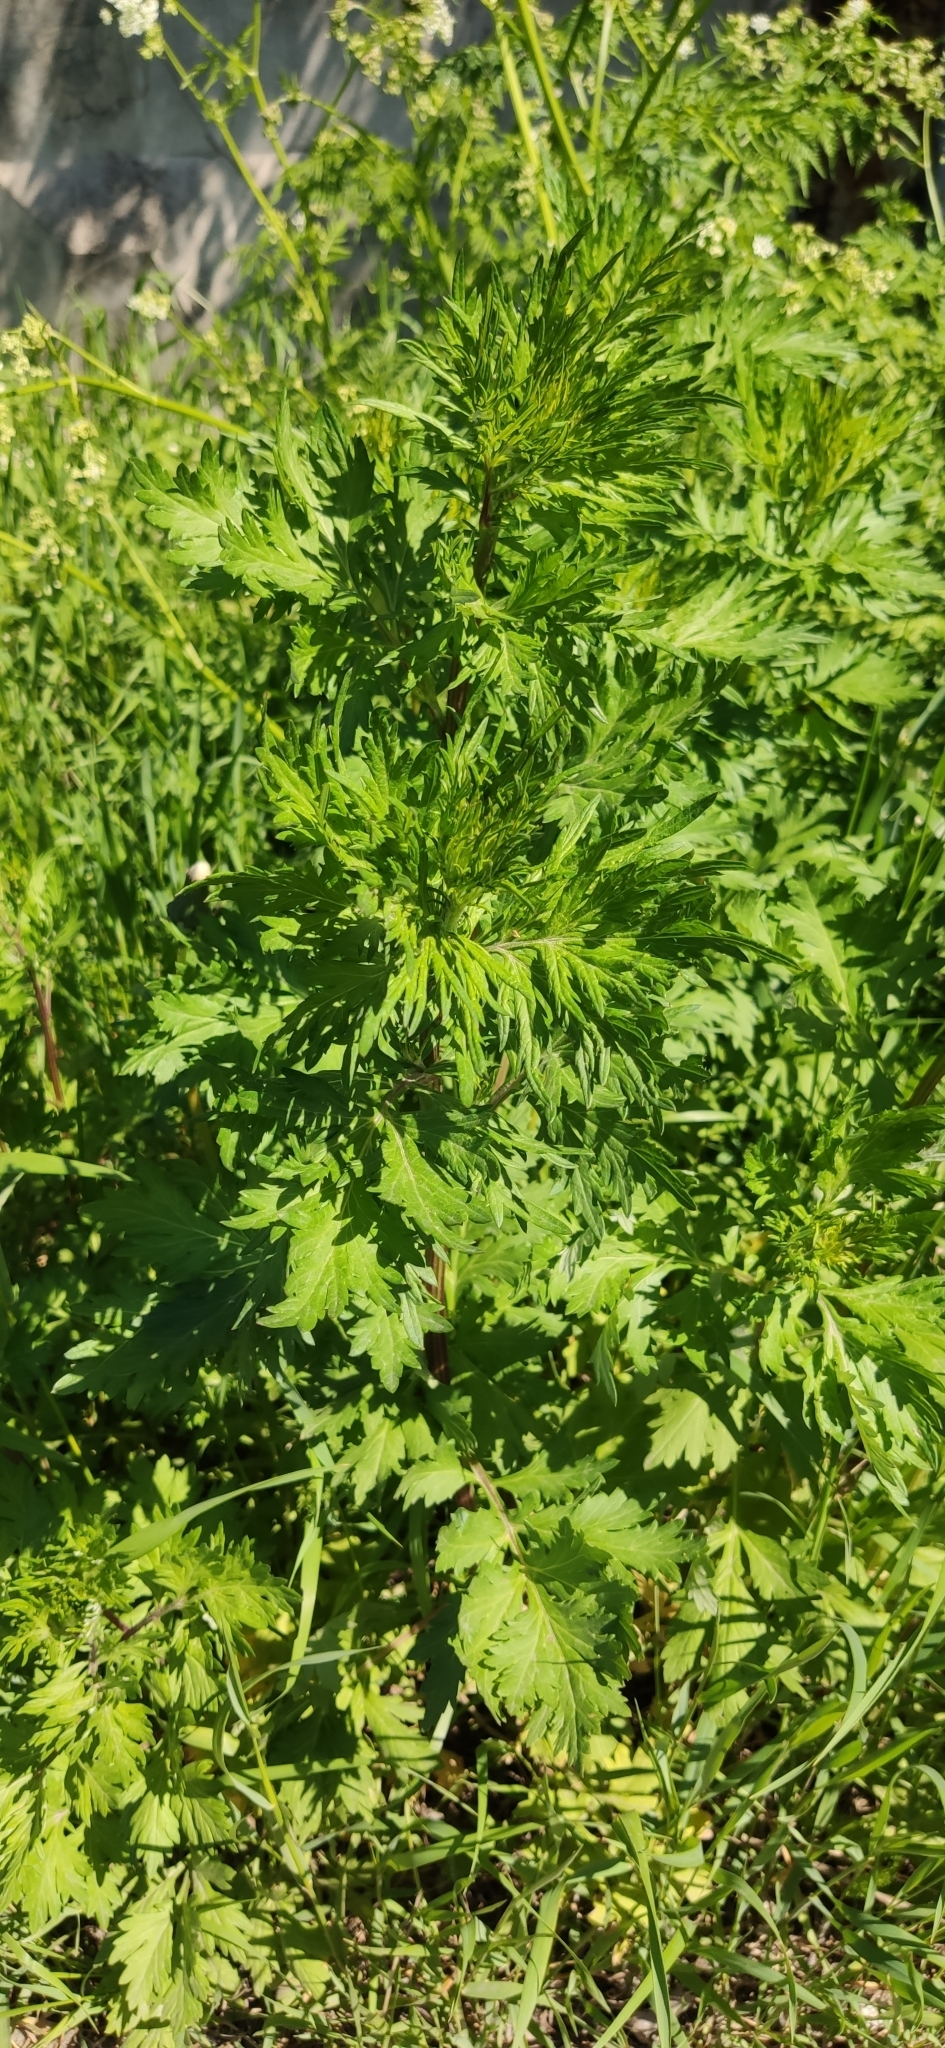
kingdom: Plantae
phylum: Tracheophyta
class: Magnoliopsida
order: Asterales
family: Asteraceae
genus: Artemisia
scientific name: Artemisia vulgaris
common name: Mugwort
